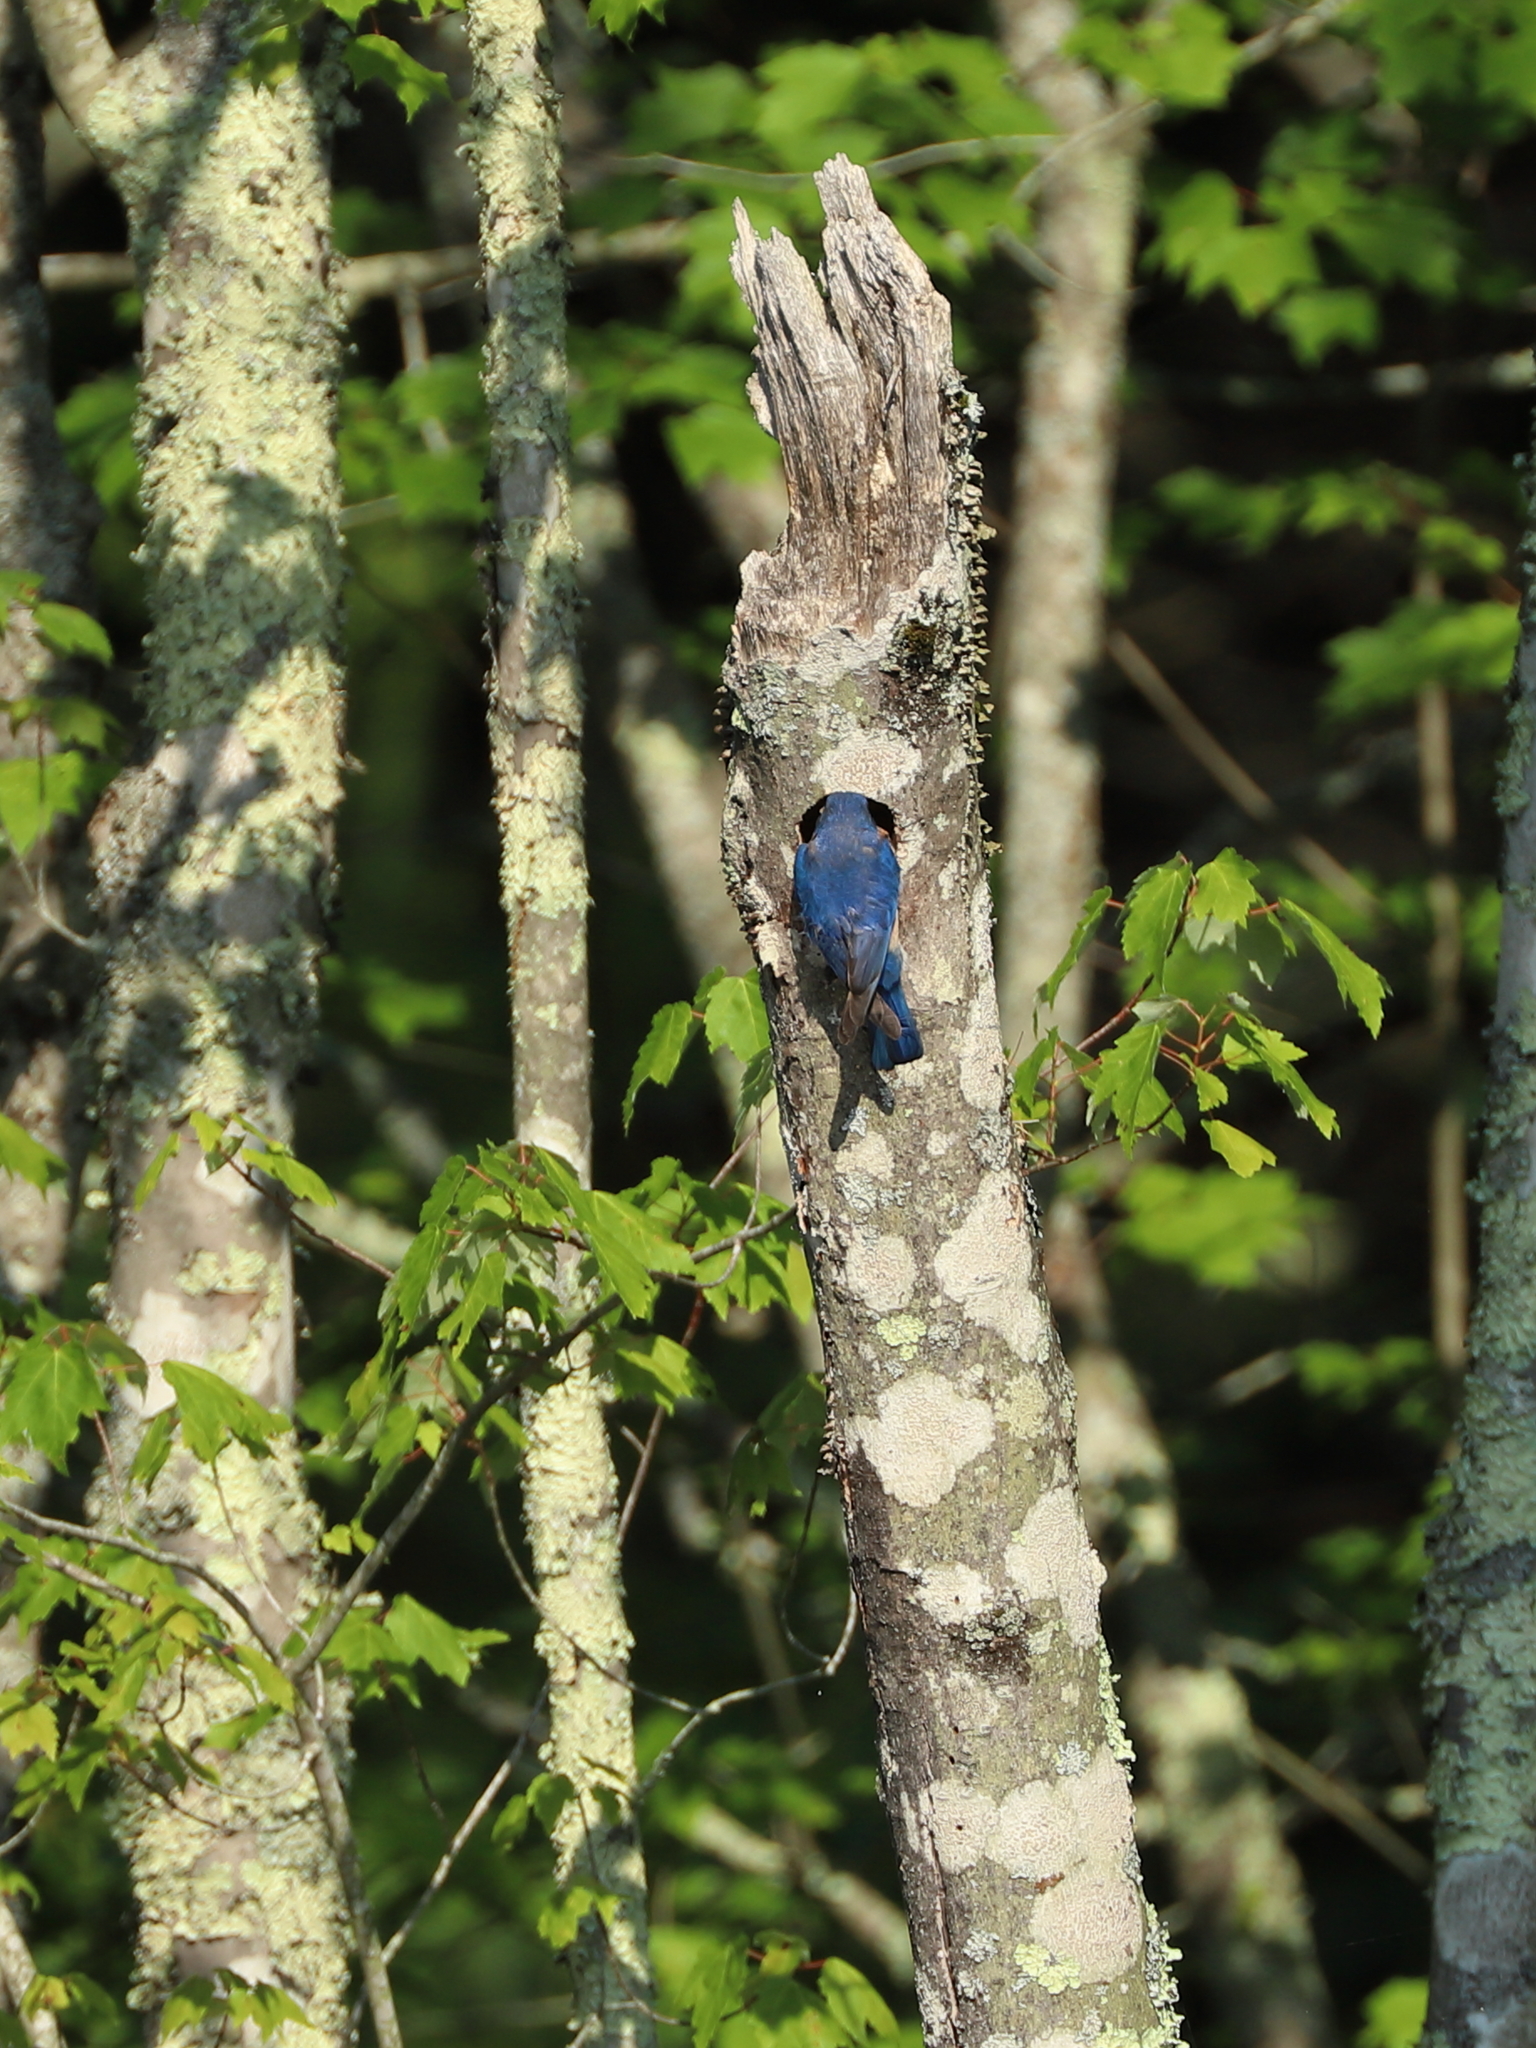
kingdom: Animalia
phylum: Chordata
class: Aves
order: Passeriformes
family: Turdidae
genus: Sialia
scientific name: Sialia sialis
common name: Eastern bluebird
